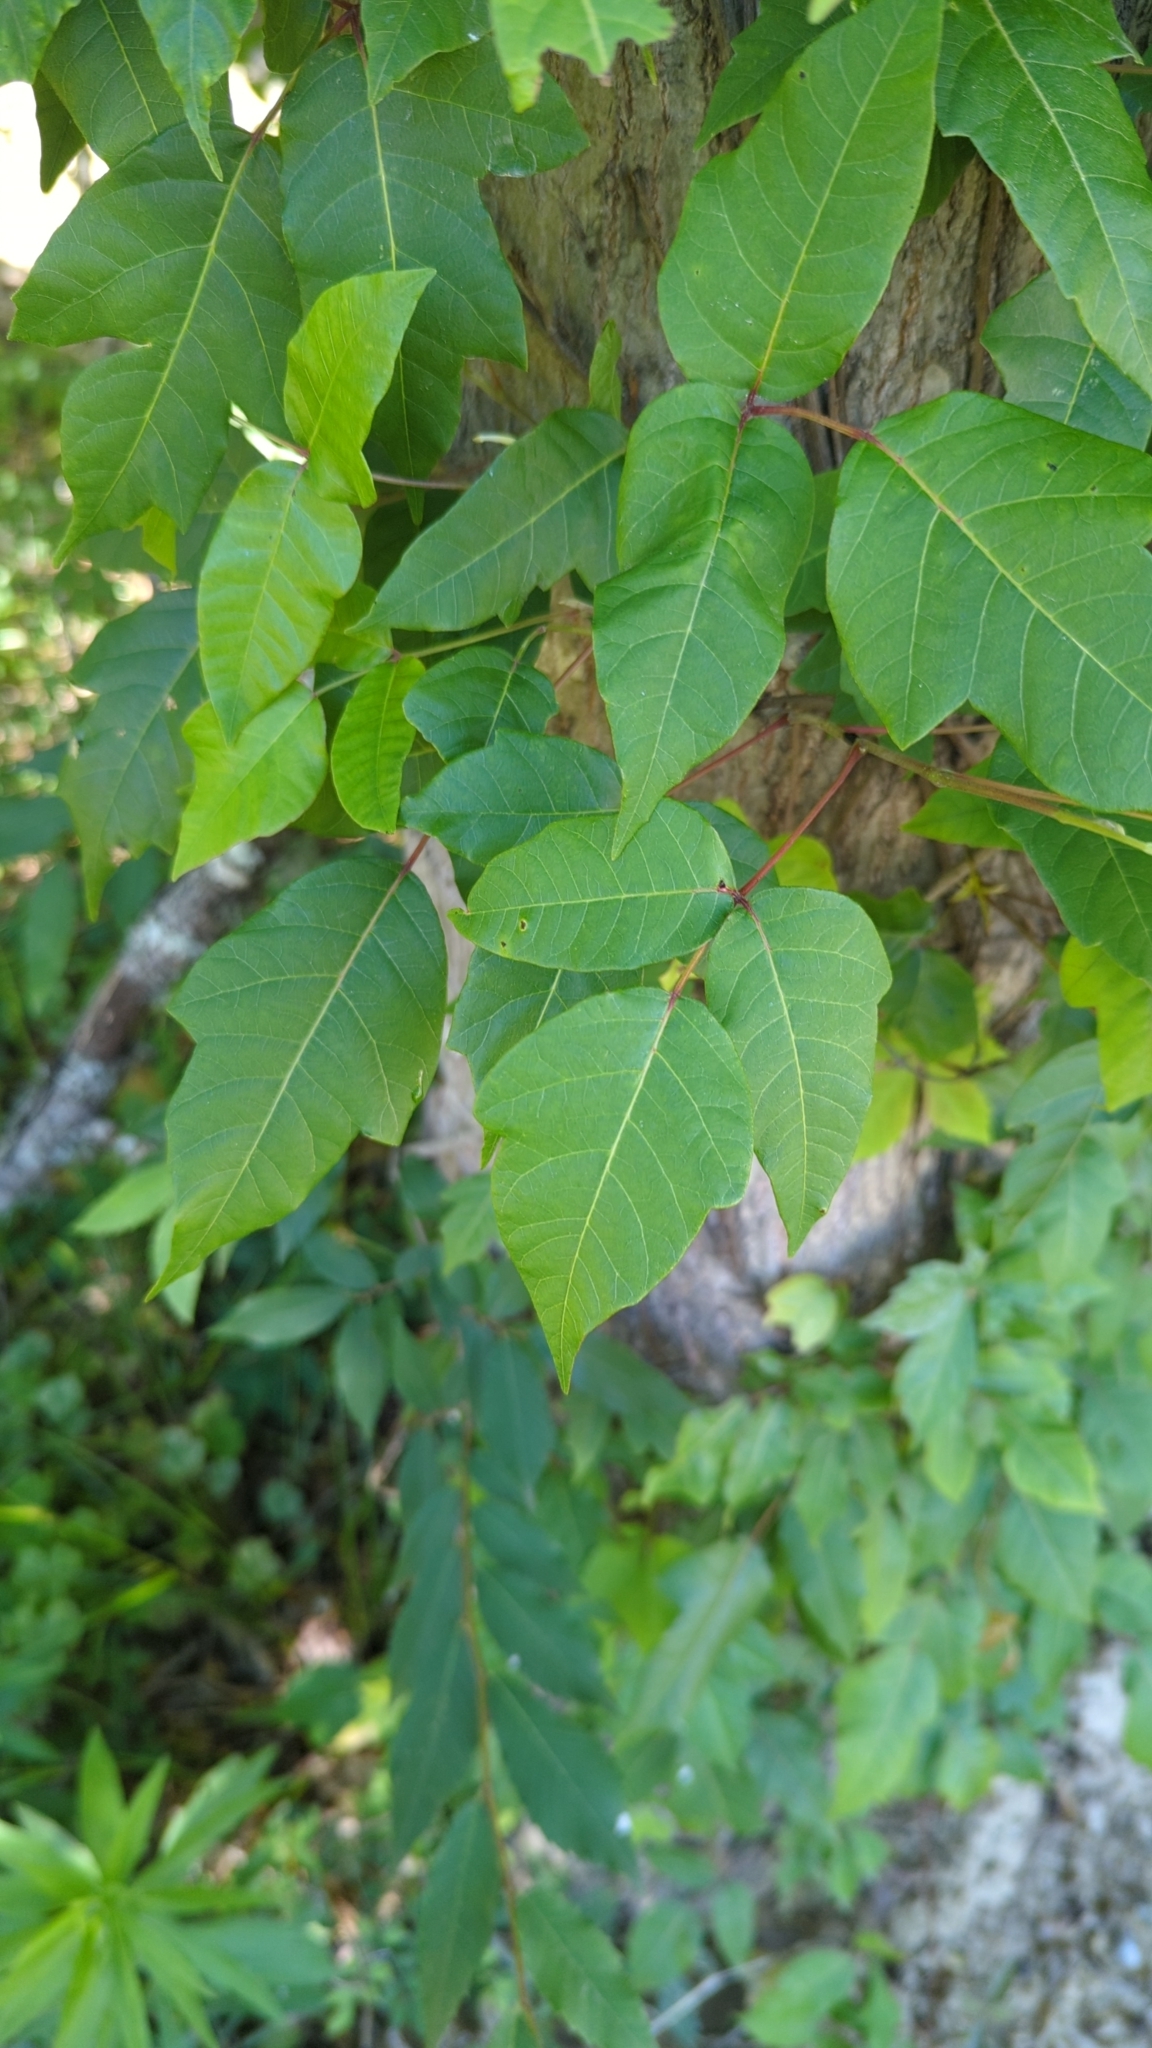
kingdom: Plantae
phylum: Tracheophyta
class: Magnoliopsida
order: Sapindales
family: Anacardiaceae
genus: Toxicodendron
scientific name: Toxicodendron radicans
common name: Poison ivy
